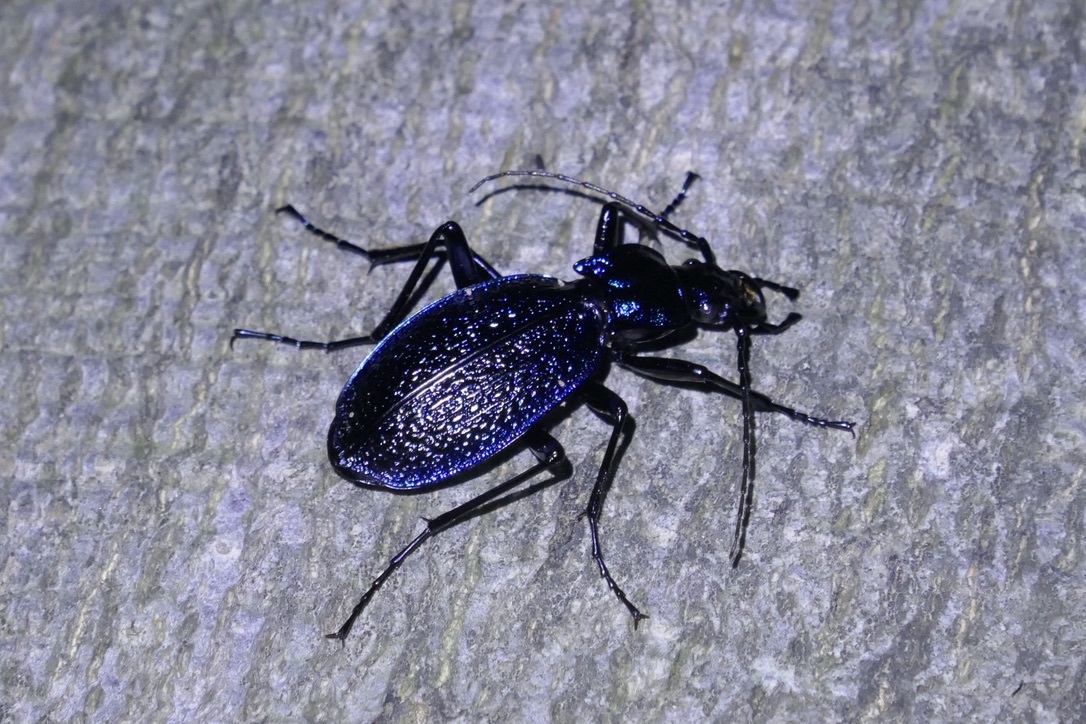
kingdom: Animalia
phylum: Arthropoda
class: Insecta
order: Coleoptera
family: Carabidae
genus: Carabus
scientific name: Carabus intricatus
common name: Blue ground beetle
